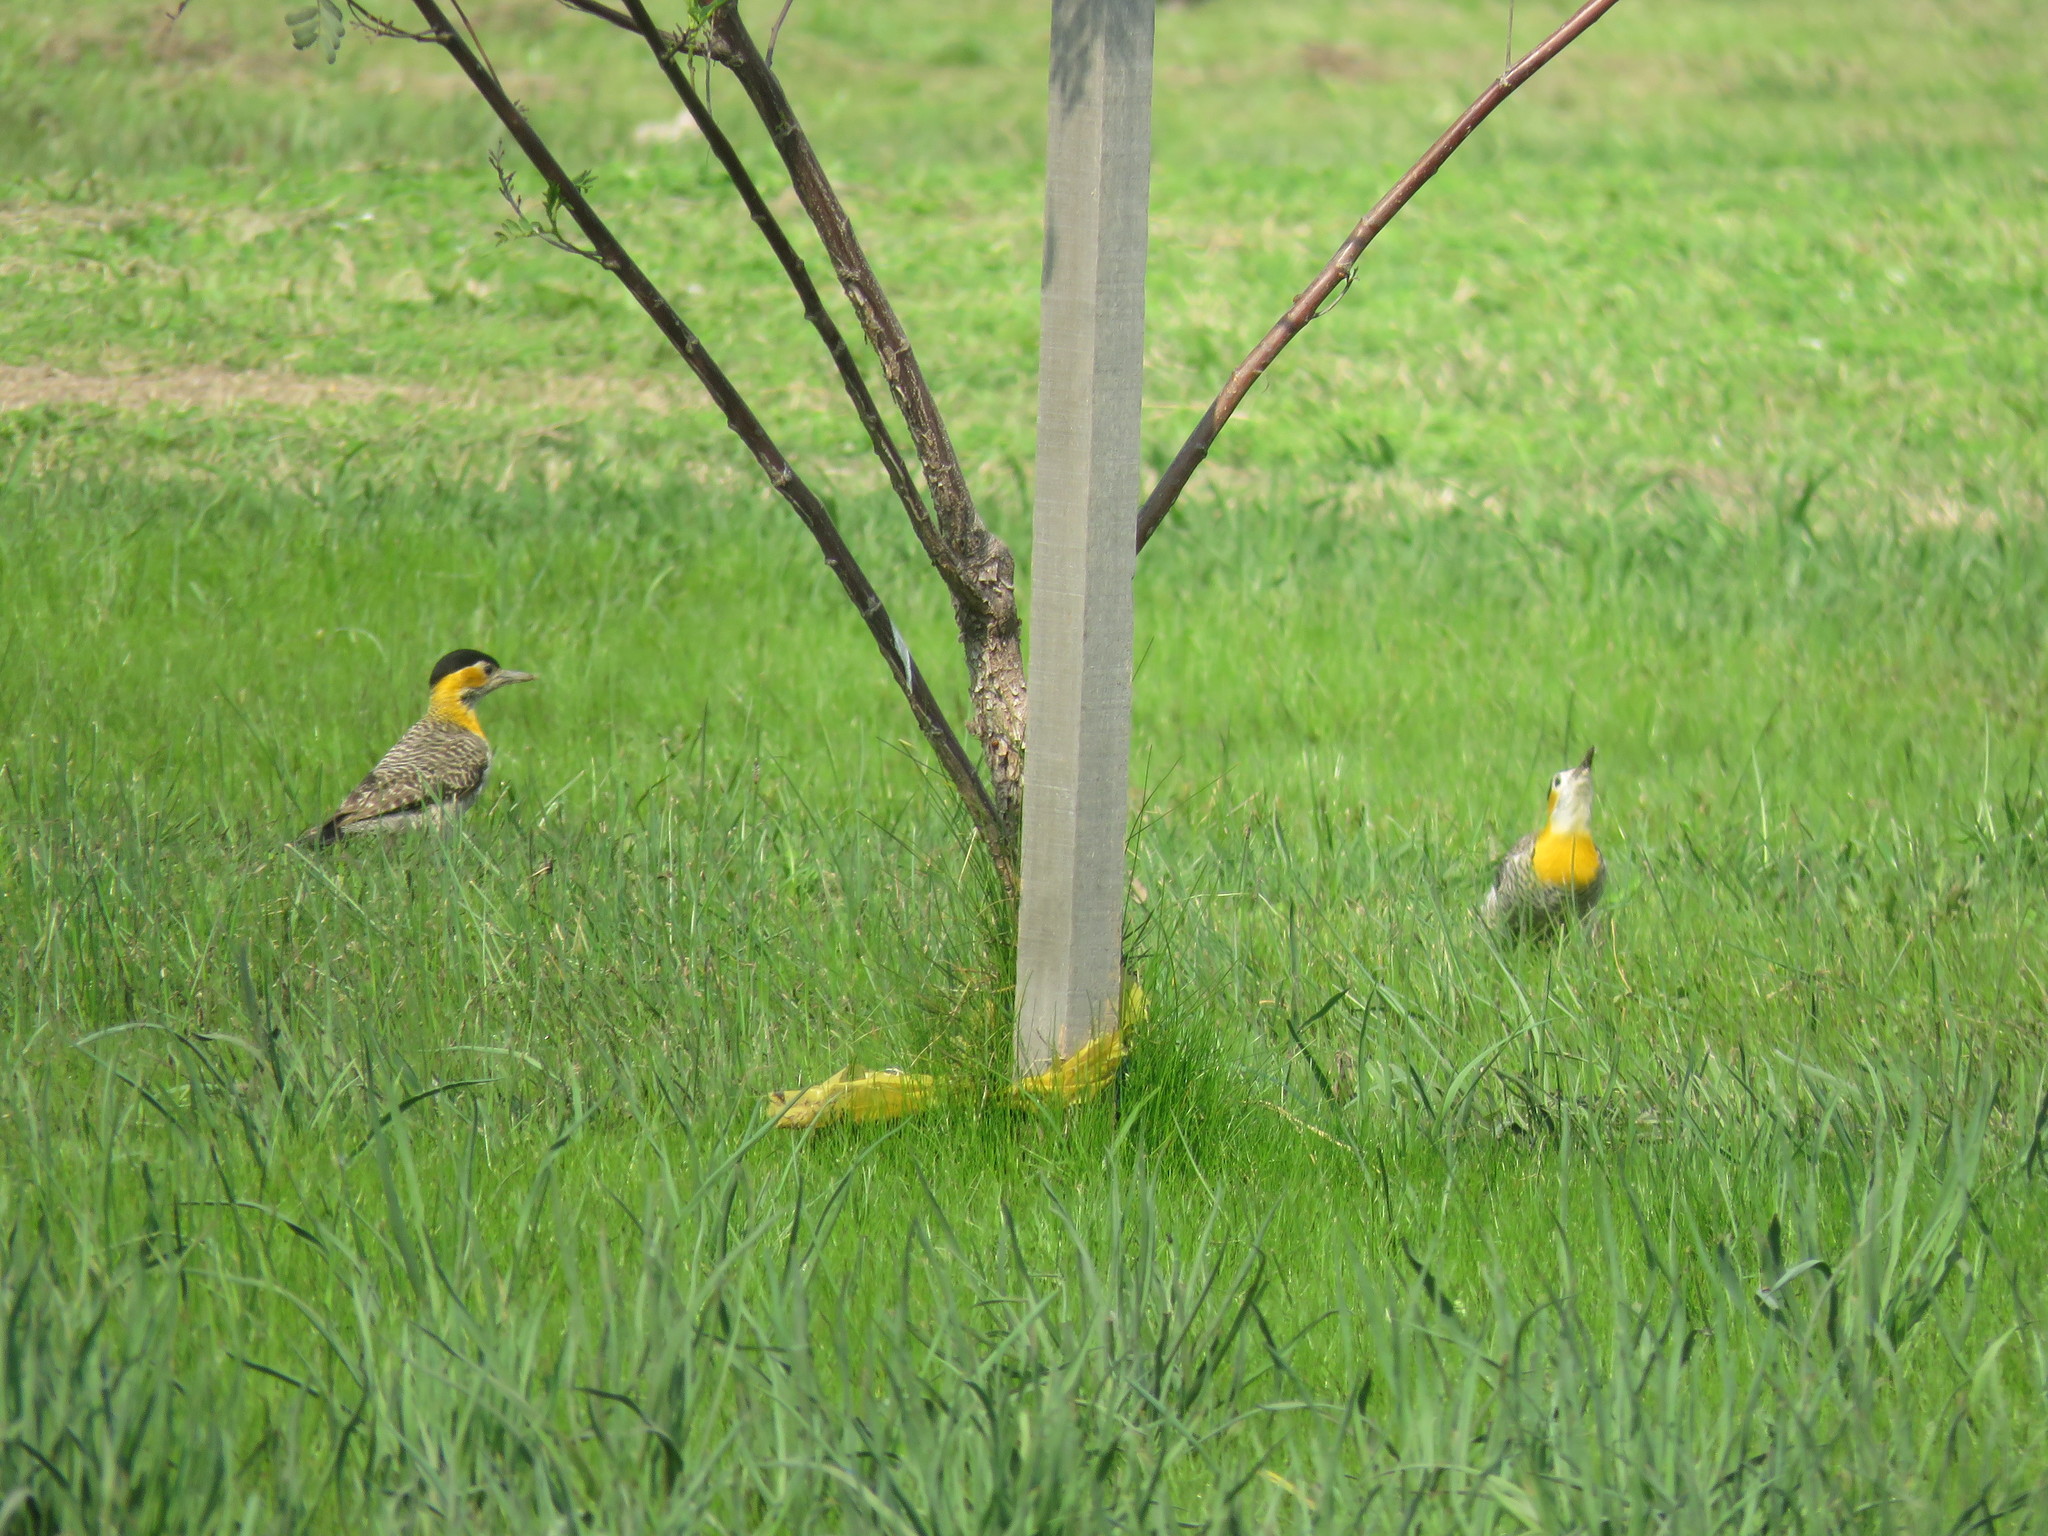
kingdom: Animalia
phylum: Chordata
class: Aves
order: Piciformes
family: Picidae
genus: Colaptes
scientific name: Colaptes campestris
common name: Campo flicker
